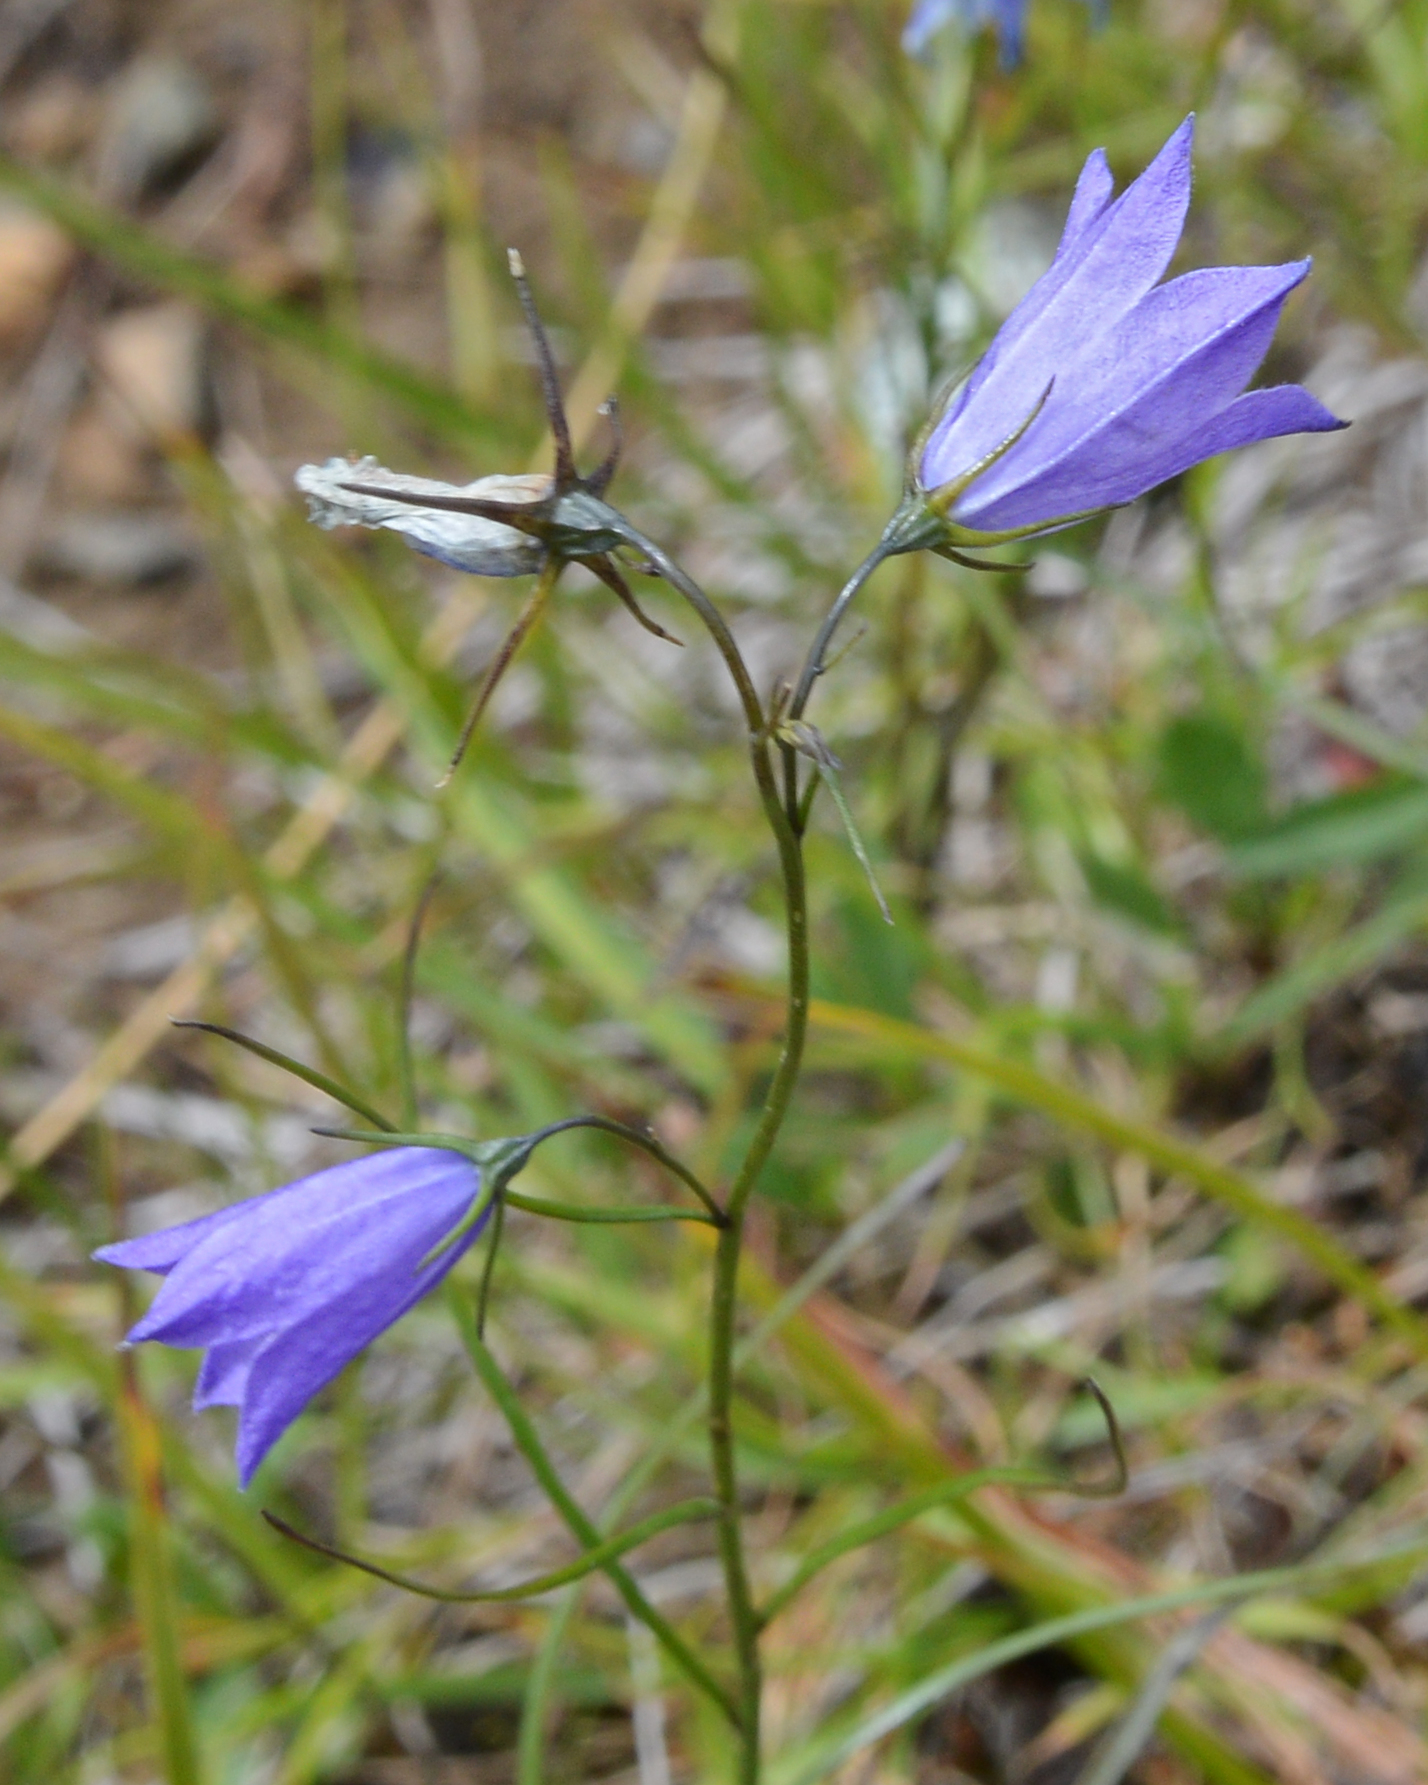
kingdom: Plantae
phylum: Tracheophyta
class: Magnoliopsida
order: Asterales
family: Campanulaceae
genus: Campanula
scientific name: Campanula giesekiana
